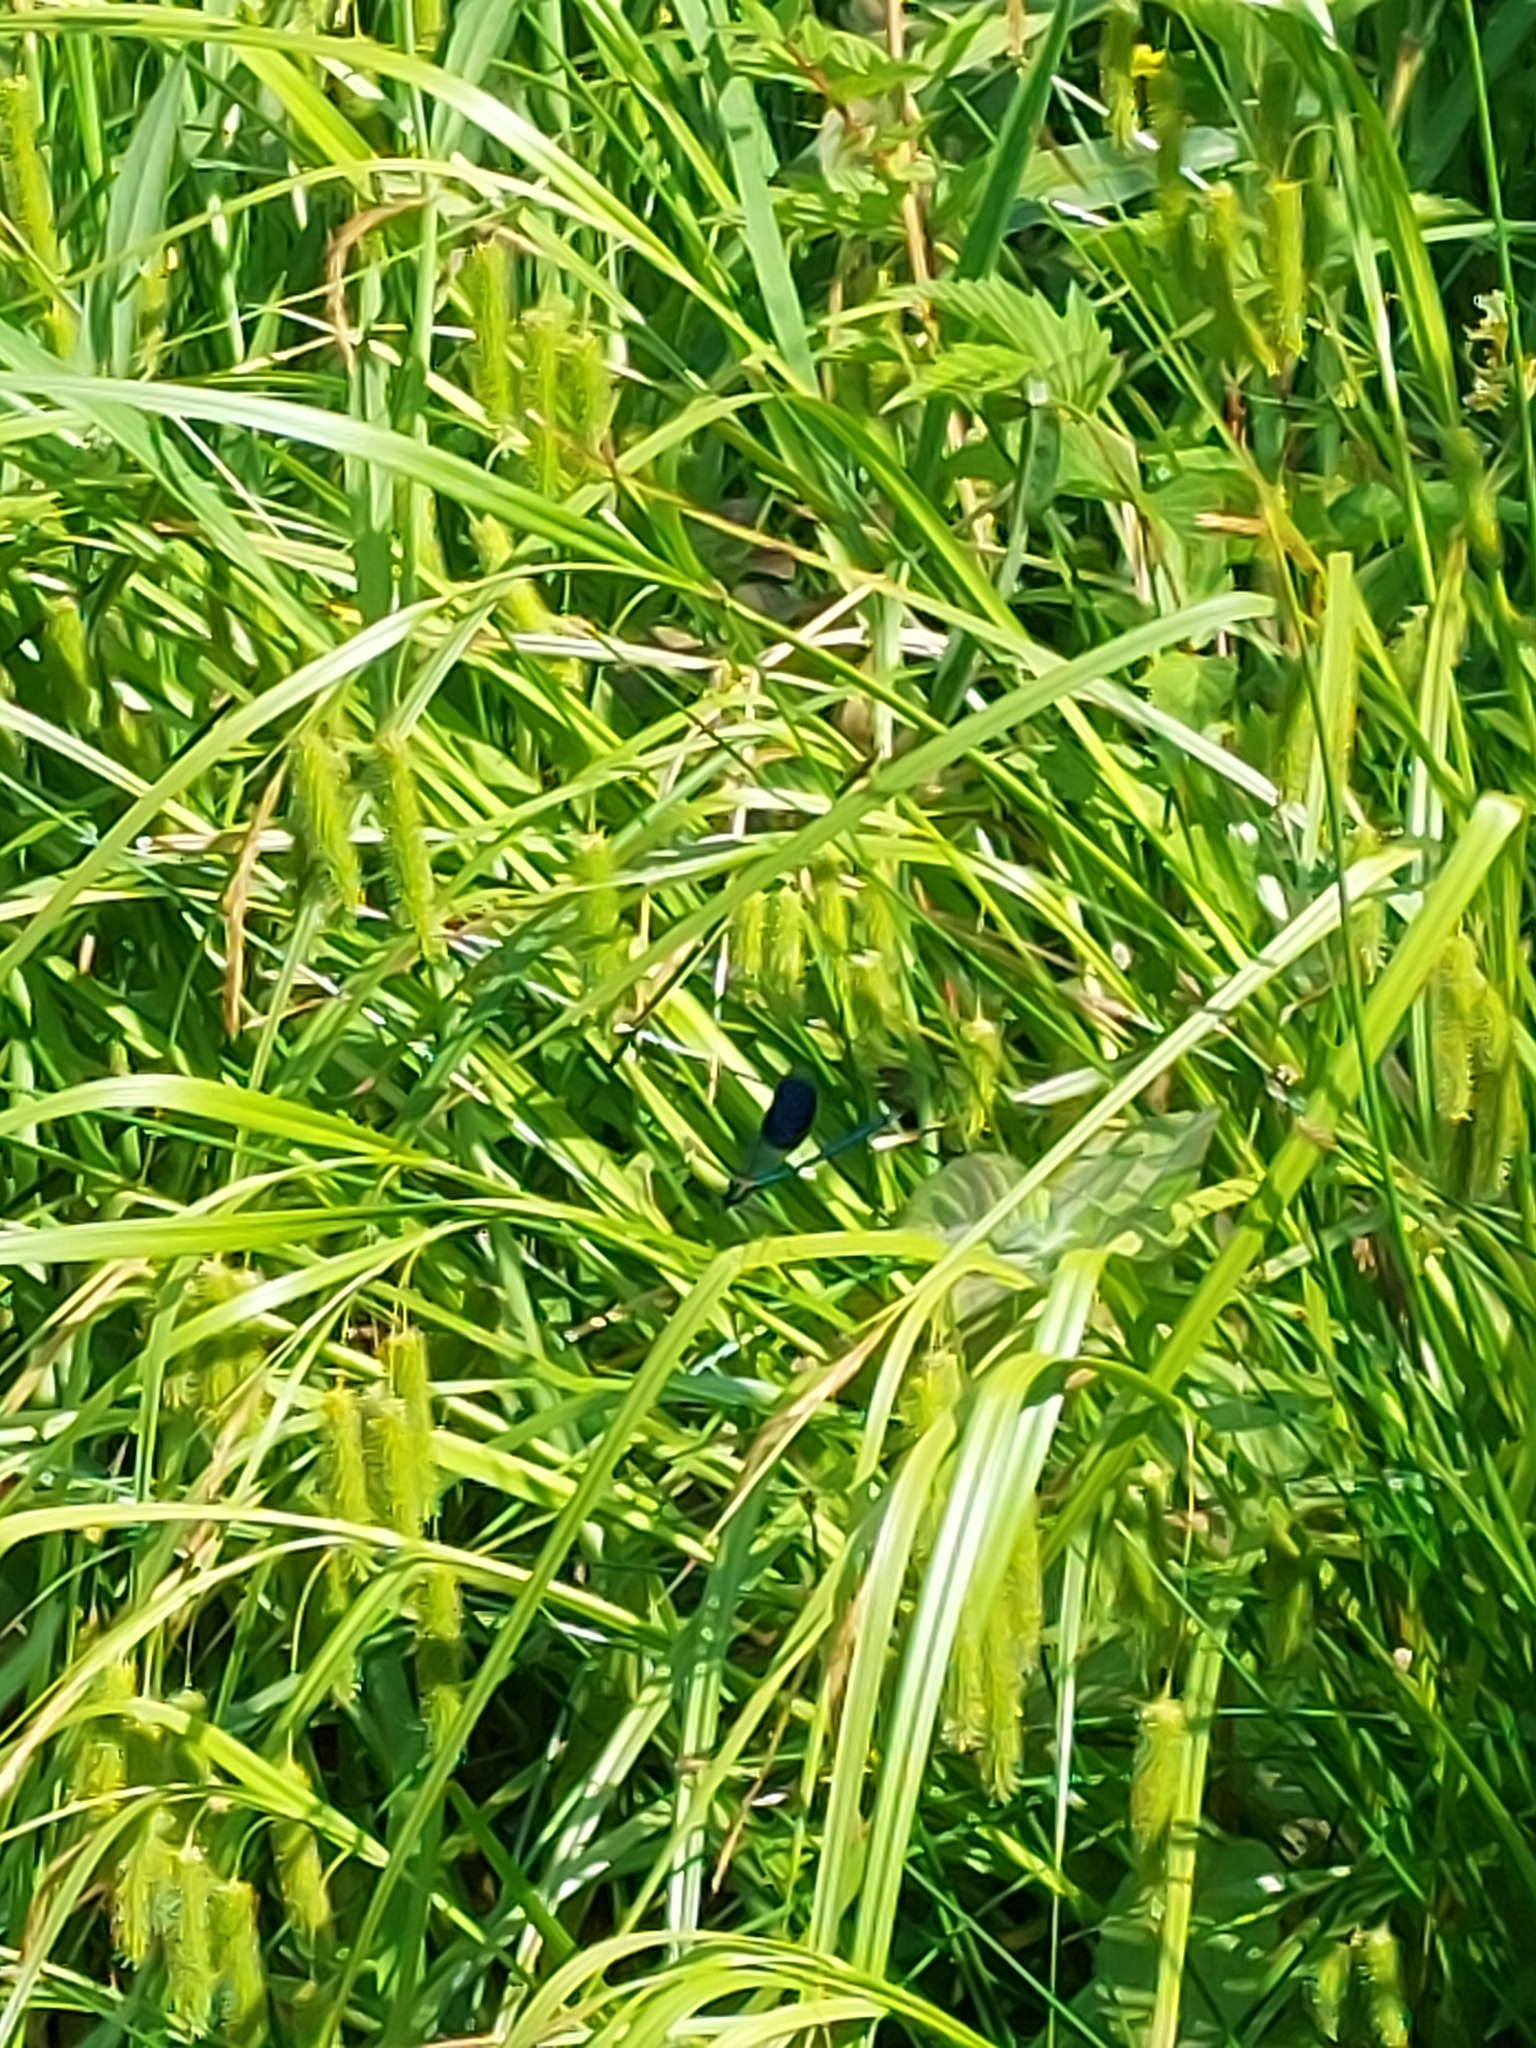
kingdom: Animalia
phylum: Arthropoda
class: Insecta
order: Odonata
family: Calopterygidae
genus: Calopteryx
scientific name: Calopteryx splendens
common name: Banded demoiselle
